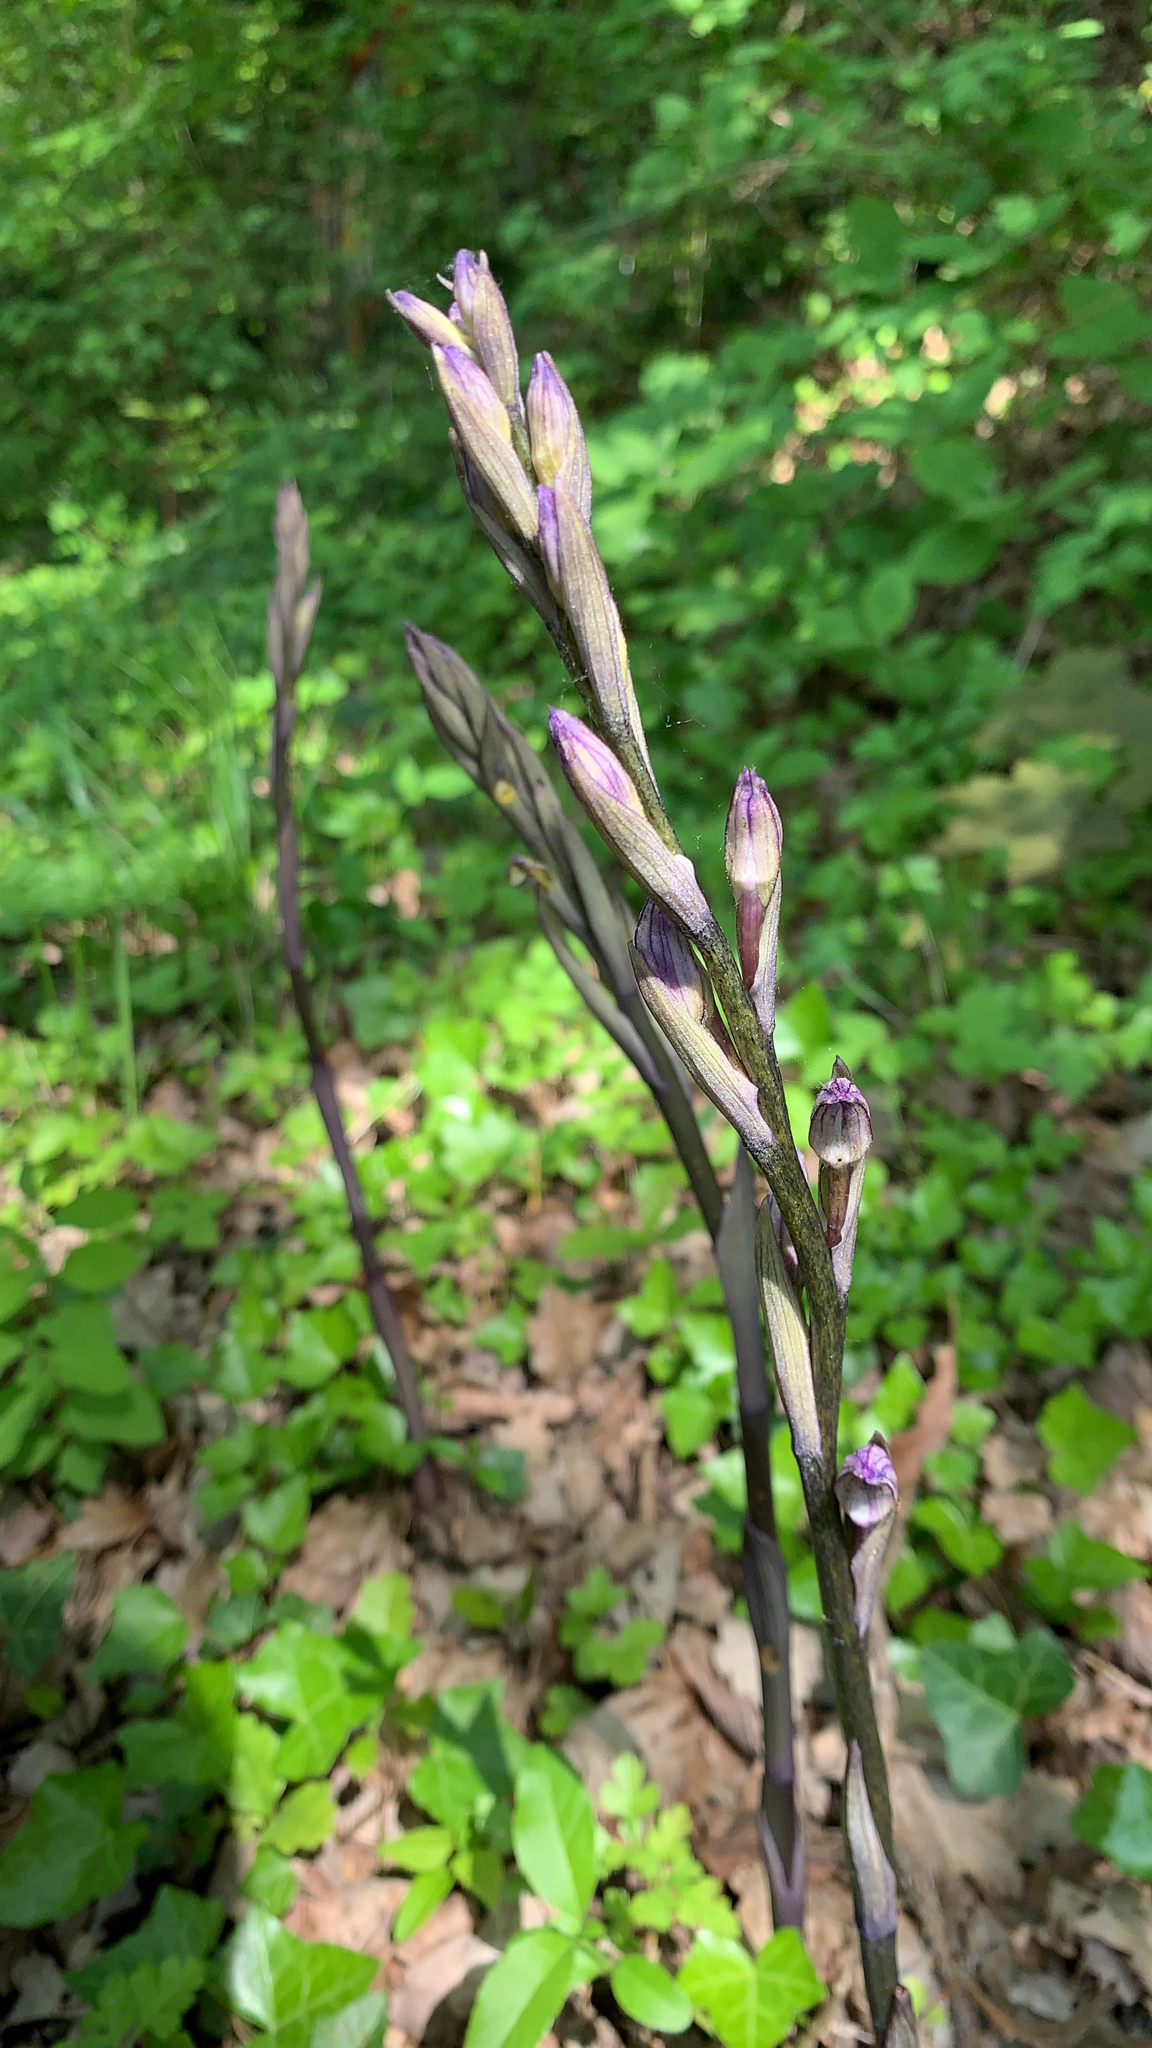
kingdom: Plantae
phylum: Tracheophyta
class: Liliopsida
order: Asparagales
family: Orchidaceae
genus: Limodorum
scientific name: Limodorum abortivum
